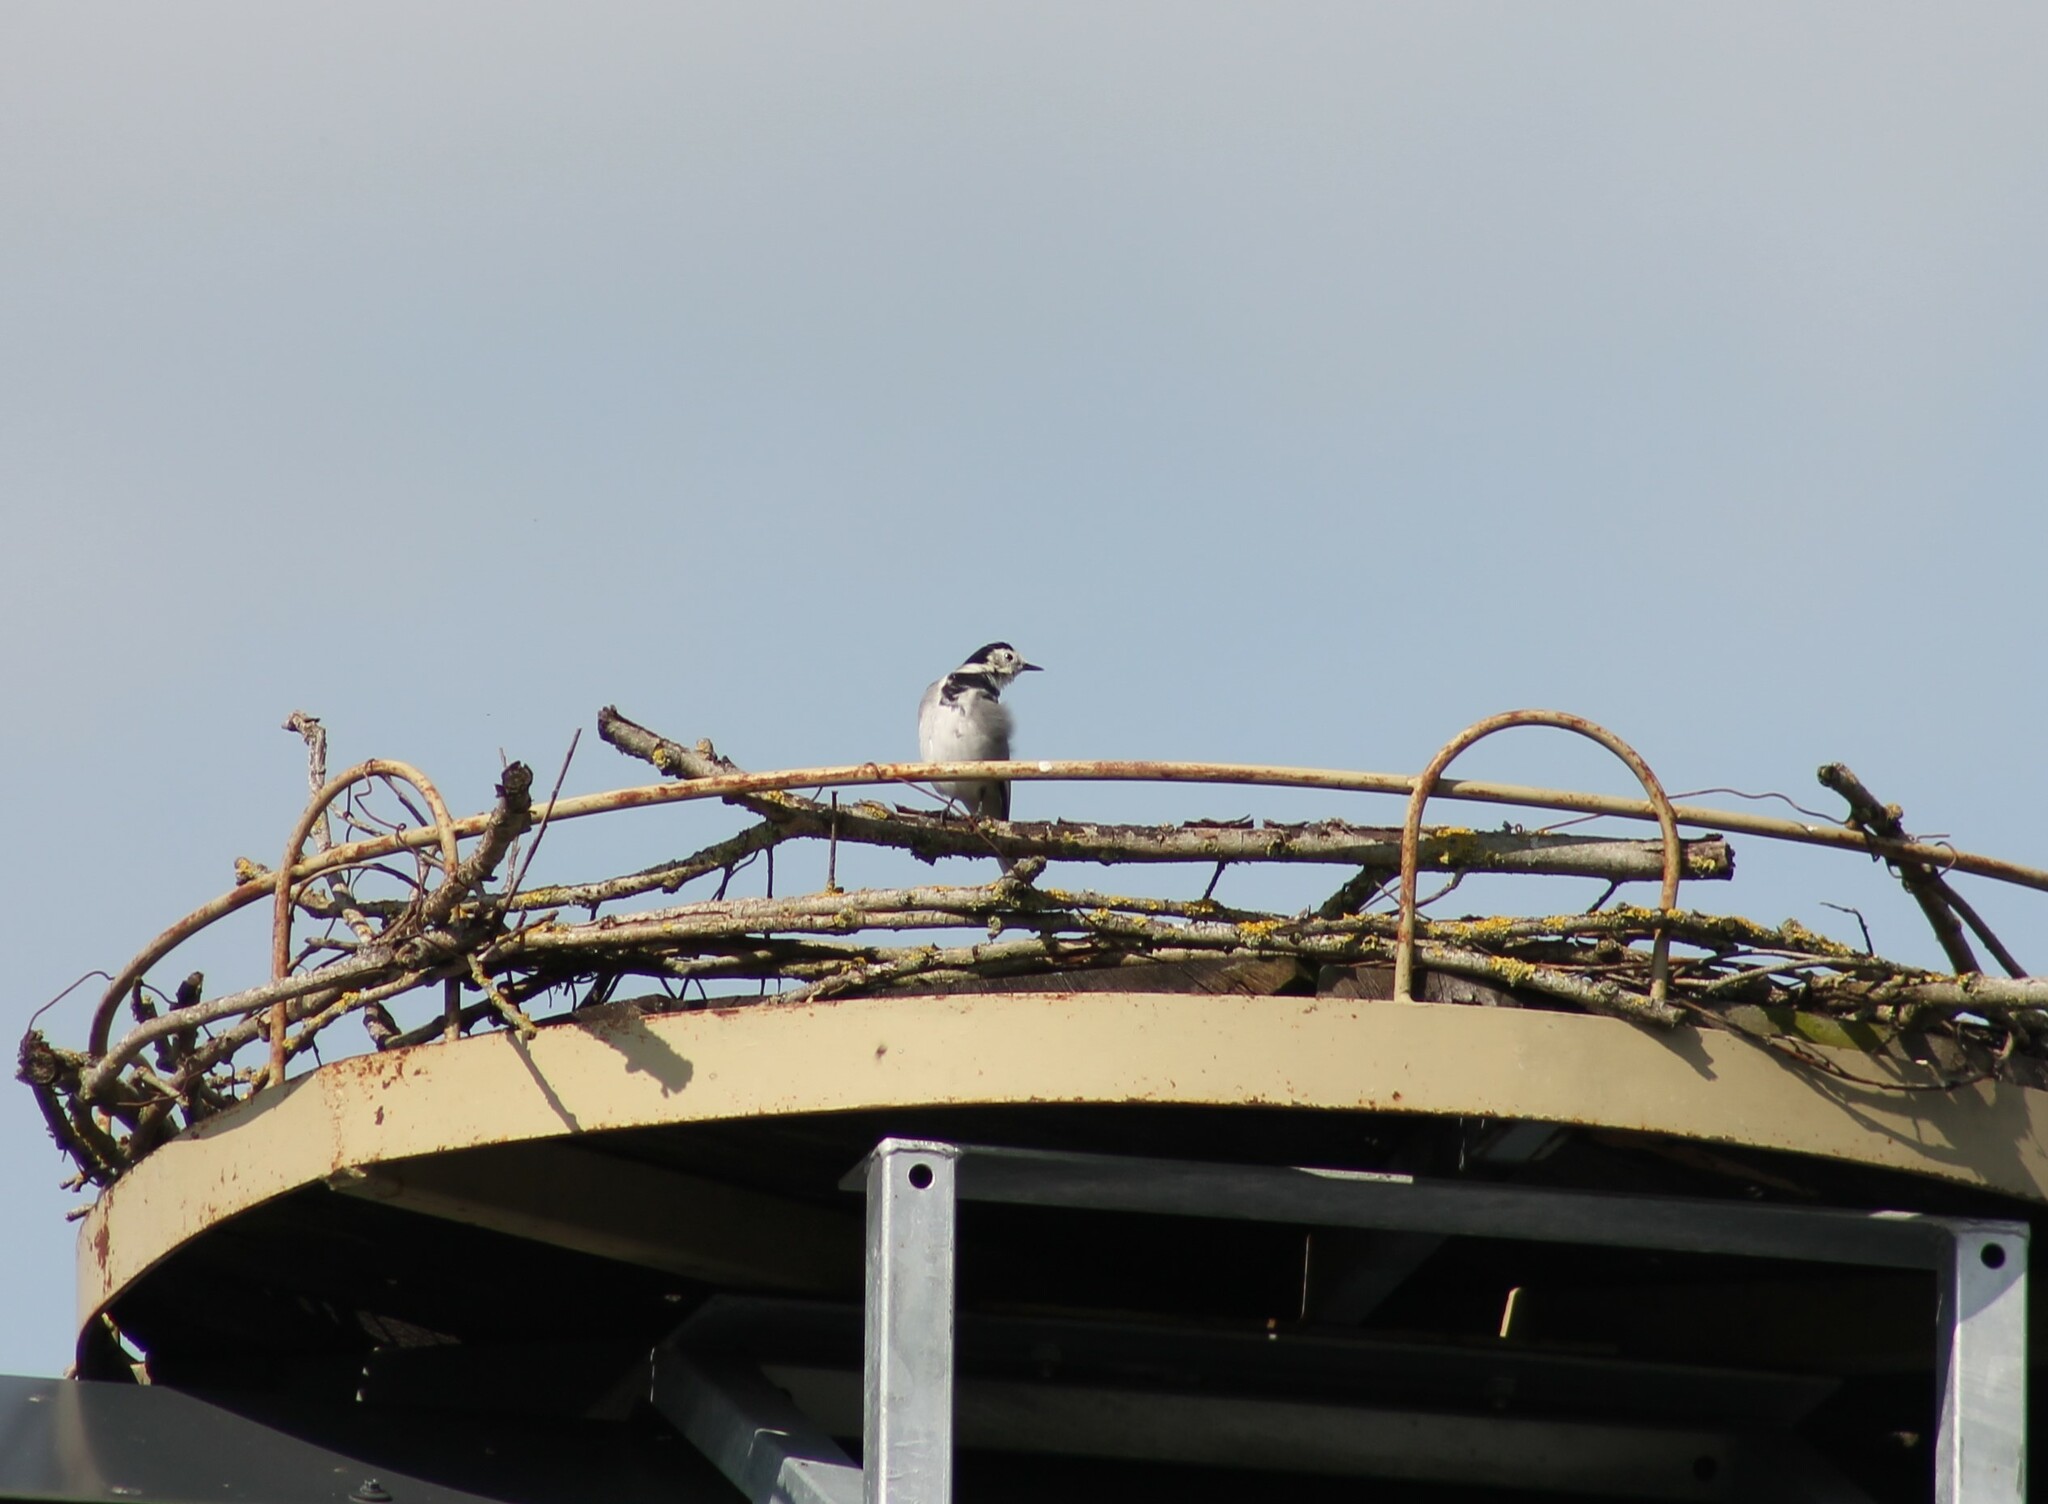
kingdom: Animalia
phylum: Chordata
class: Aves
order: Passeriformes
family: Motacillidae
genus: Motacilla
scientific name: Motacilla alba
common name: White wagtail
